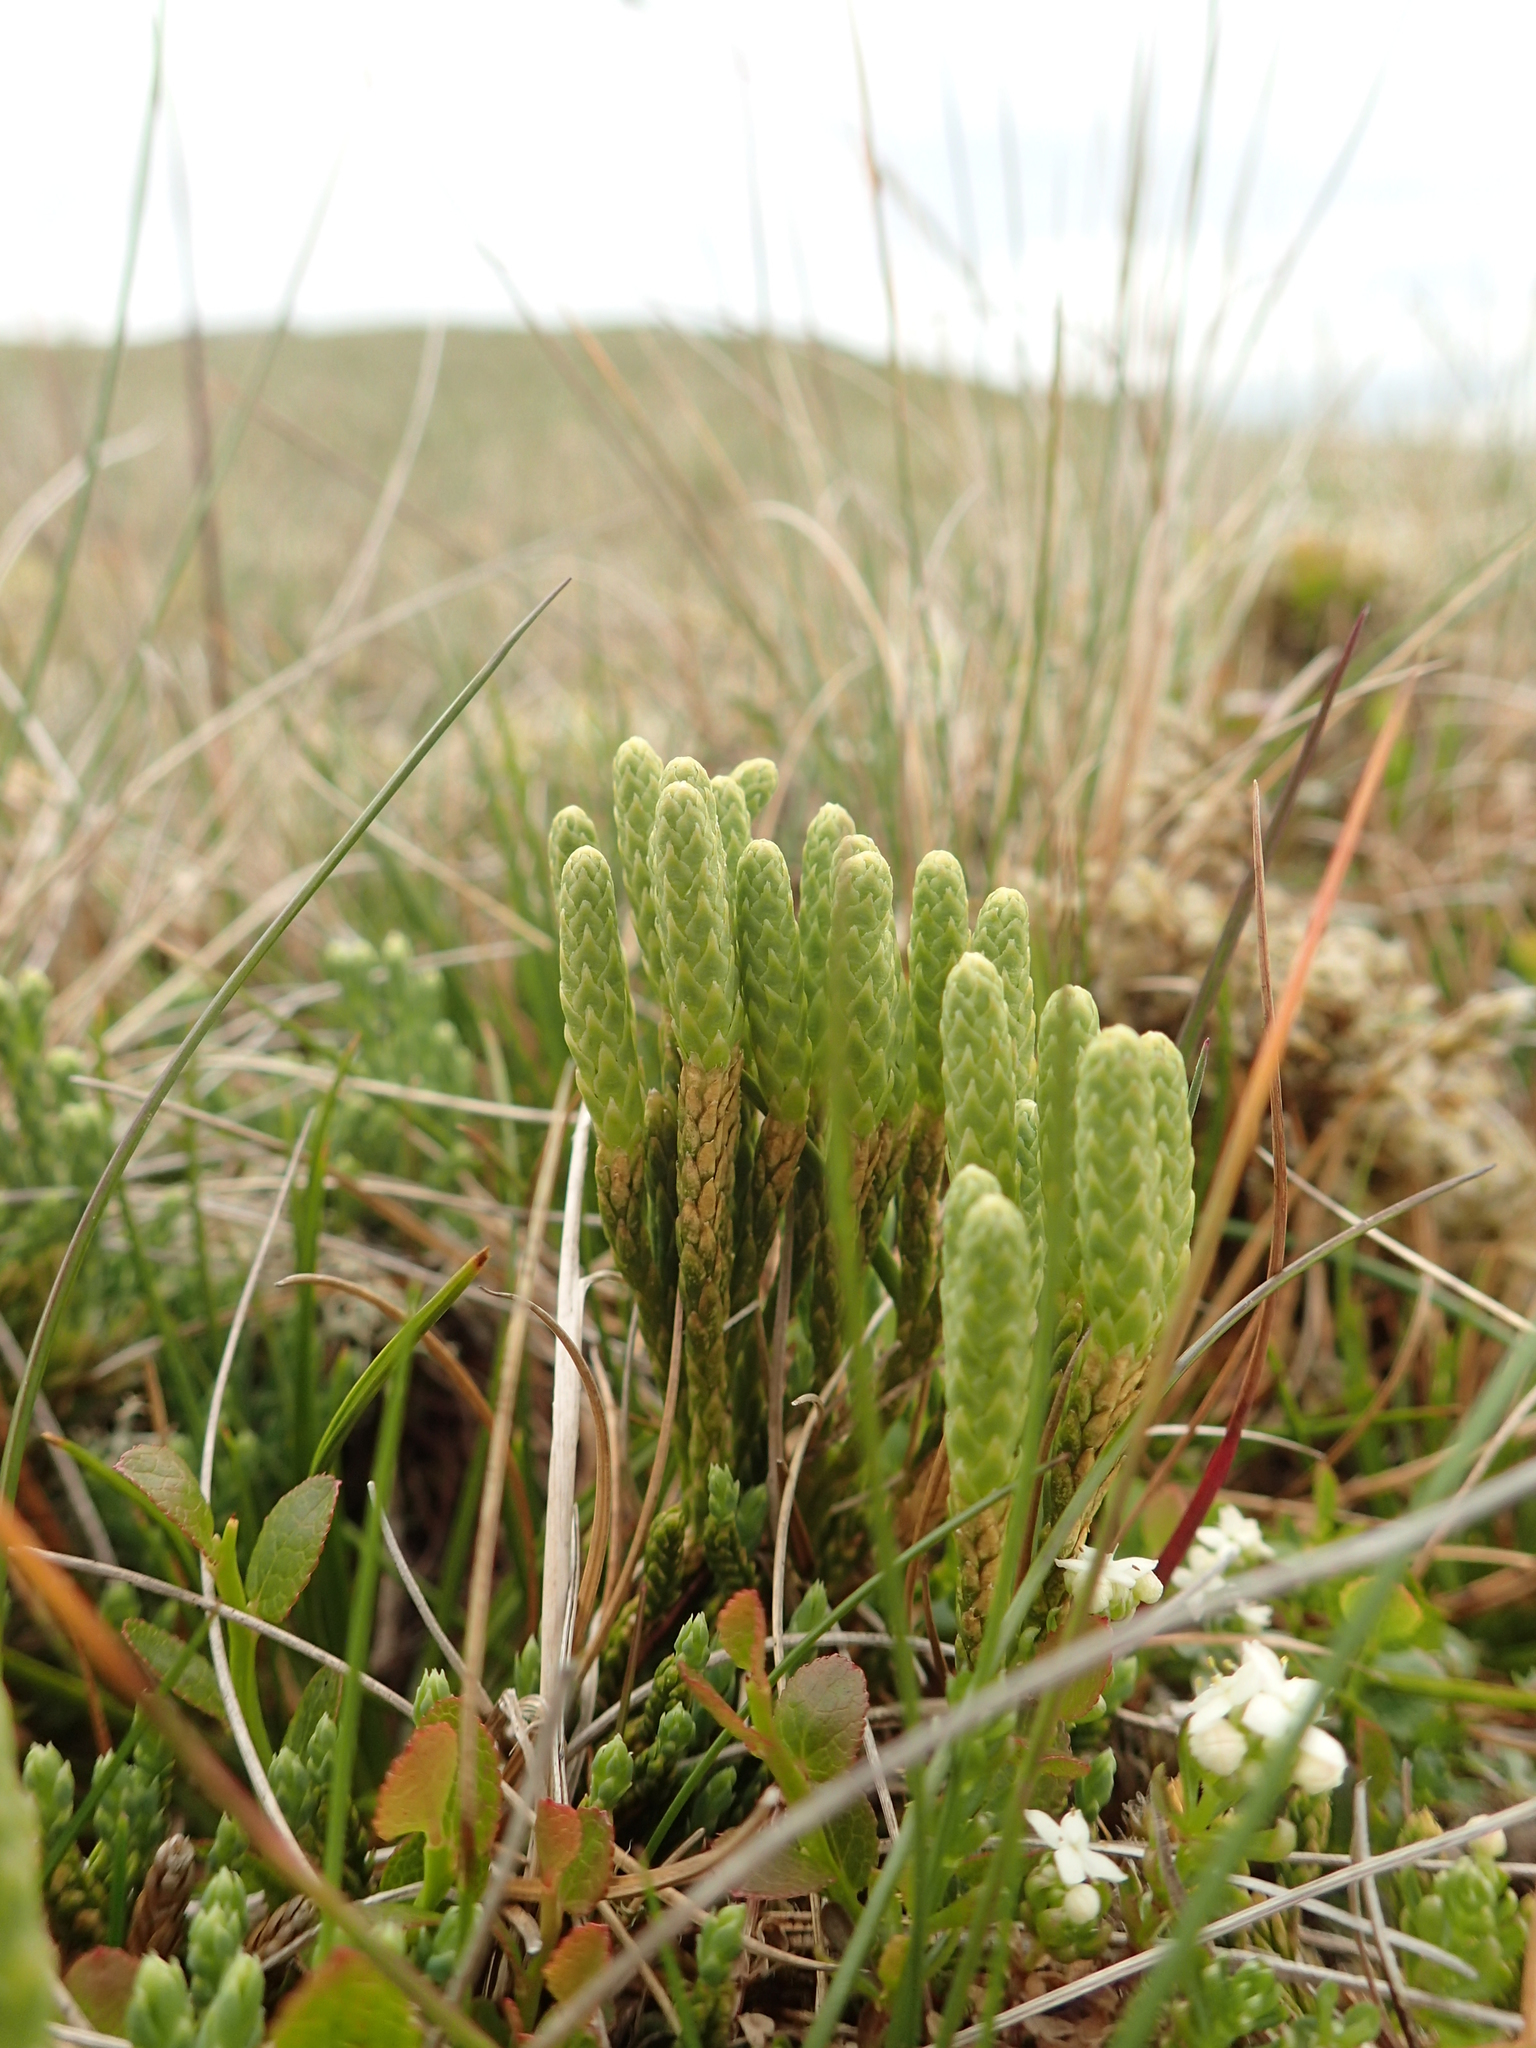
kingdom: Plantae
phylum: Tracheophyta
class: Lycopodiopsida
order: Lycopodiales
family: Lycopodiaceae
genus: Diphasiastrum
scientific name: Diphasiastrum alpinum
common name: Alpine clubmoss
